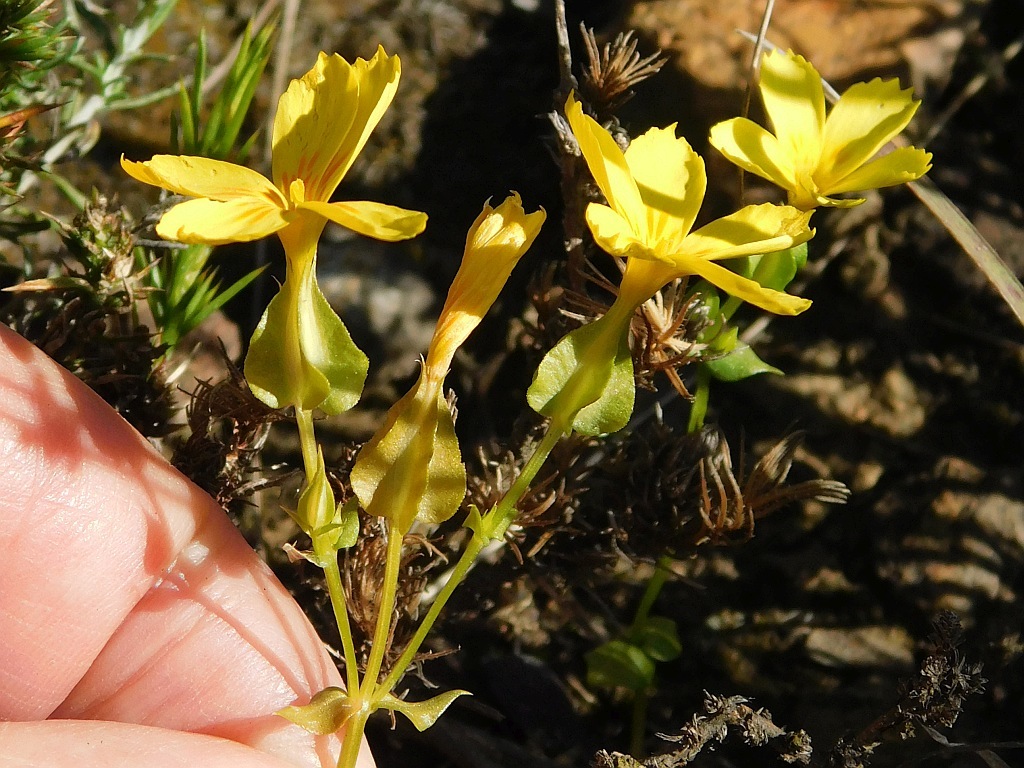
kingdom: Plantae
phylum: Tracheophyta
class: Magnoliopsida
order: Gentianales
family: Gentianaceae
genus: Sebaea
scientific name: Sebaea solaris
